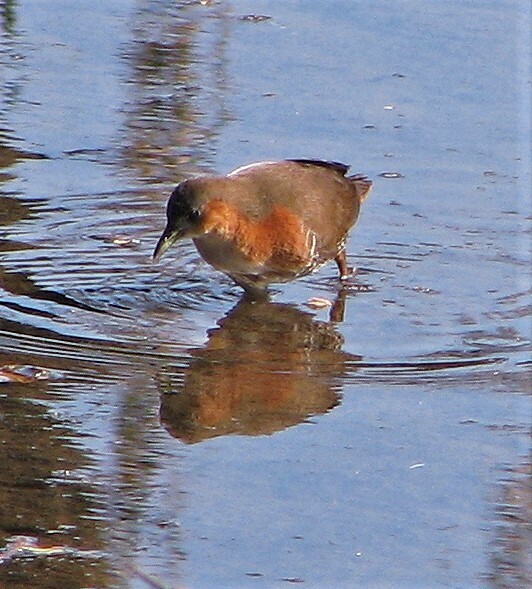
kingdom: Animalia
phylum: Chordata
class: Aves
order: Gruiformes
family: Rallidae
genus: Laterallus
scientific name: Laterallus melanophaius
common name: Rufous-sided crake
